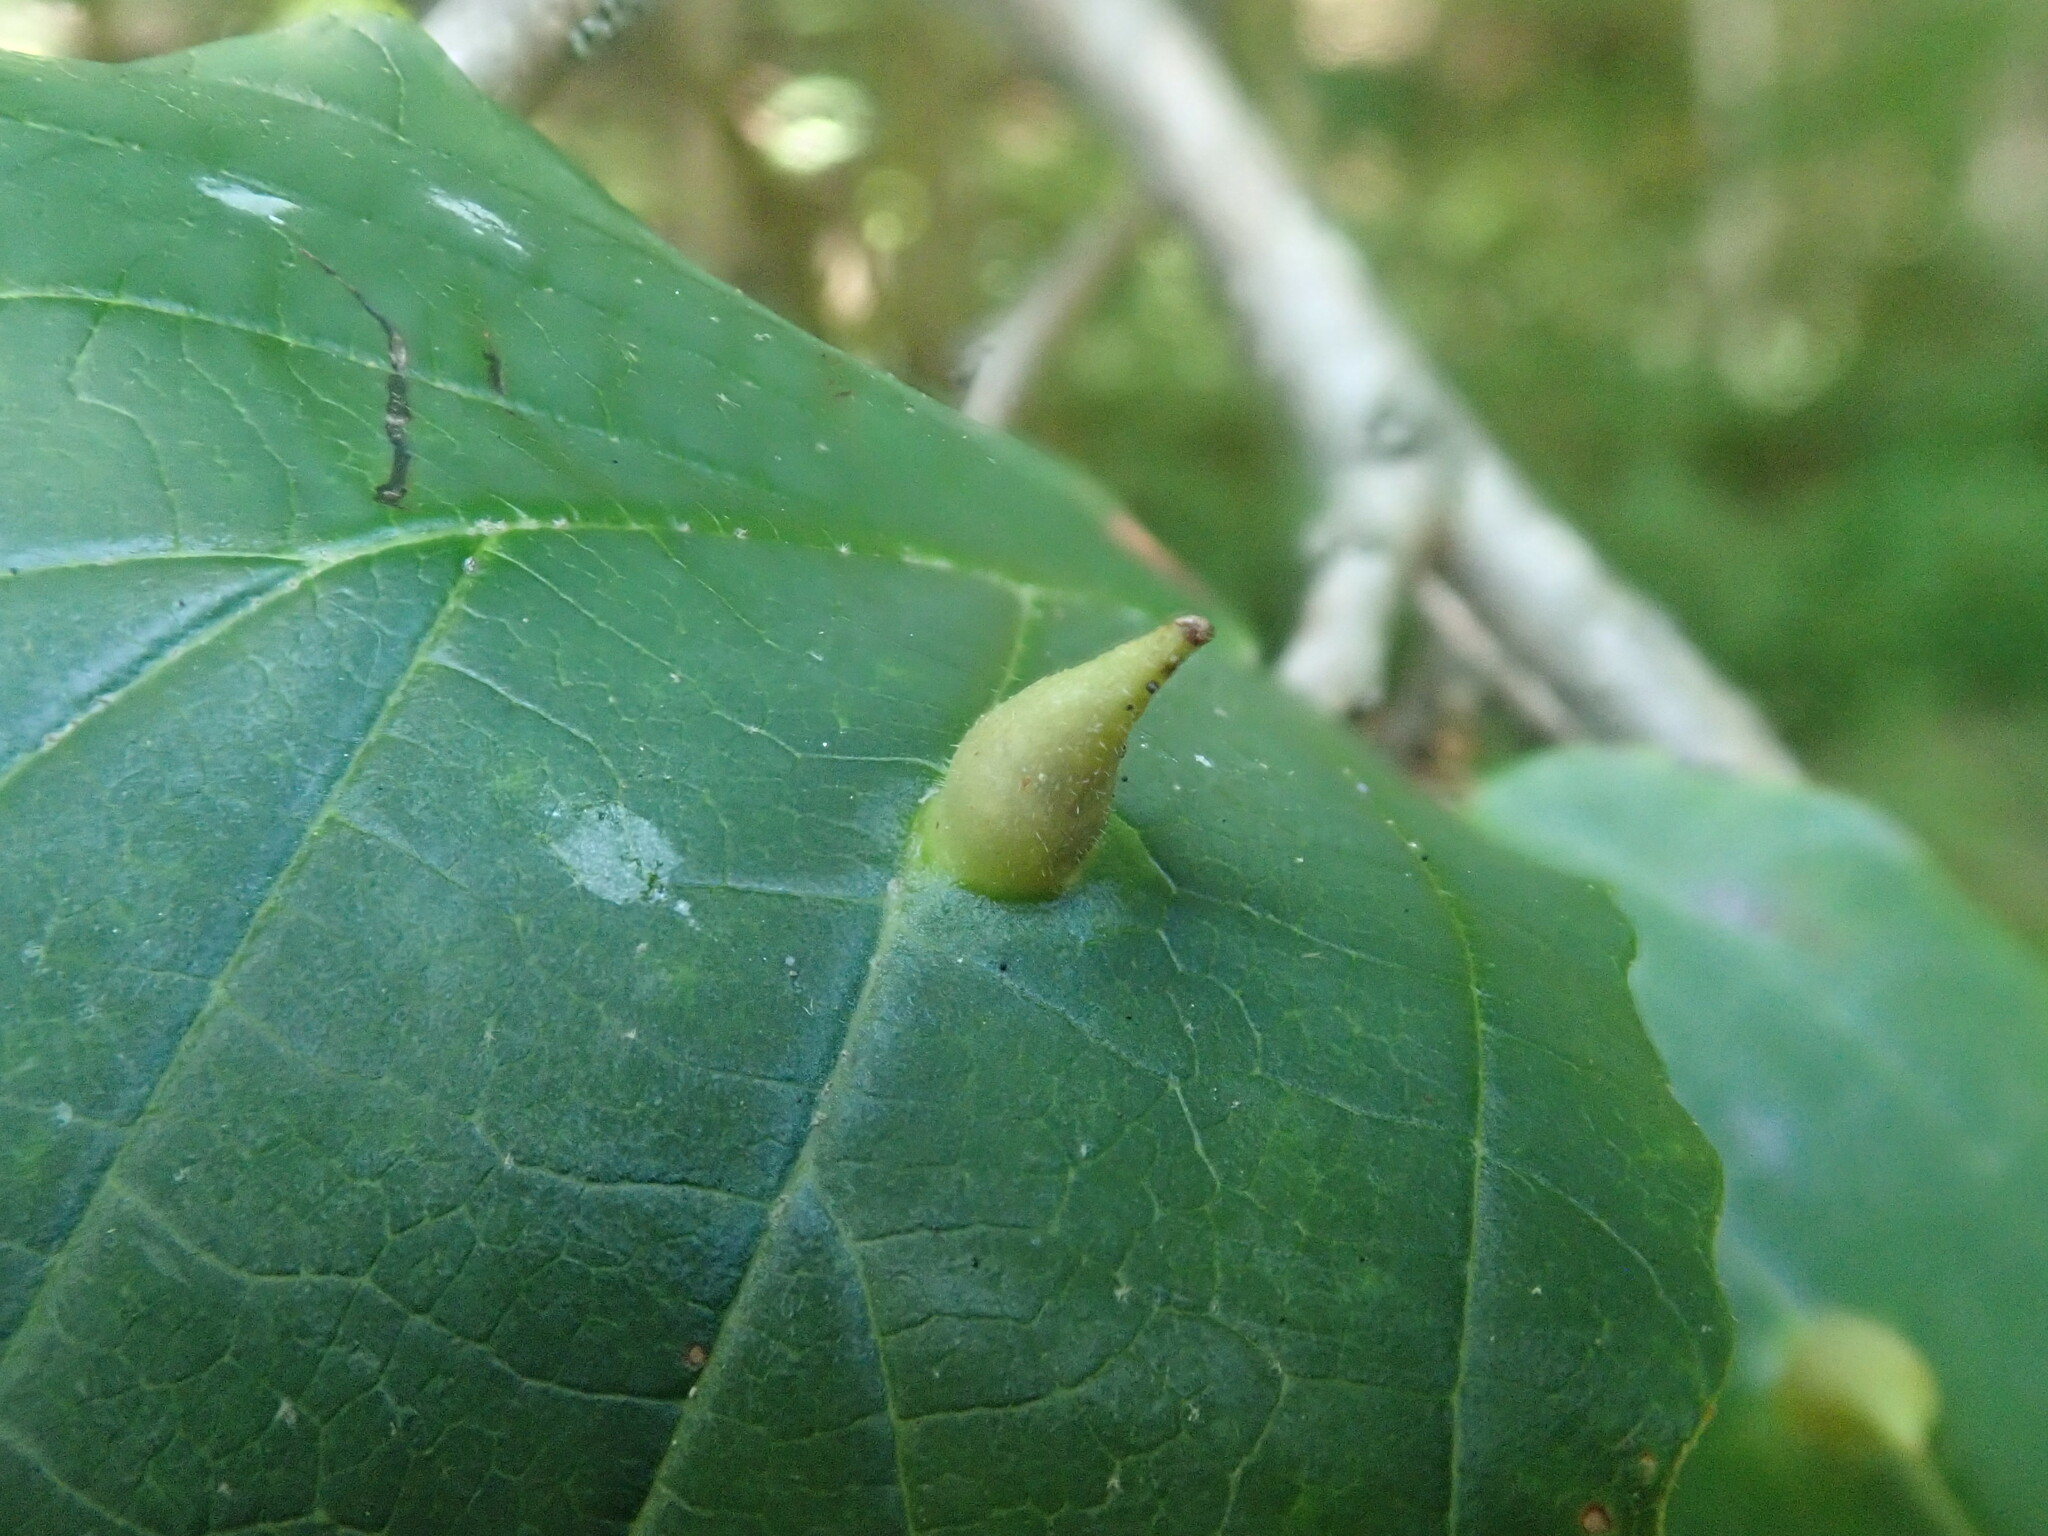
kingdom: Animalia
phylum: Arthropoda
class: Insecta
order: Hemiptera
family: Aphididae
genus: Hormaphis
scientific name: Hormaphis hamamelidis
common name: Witch-hazel cone gall aphid
